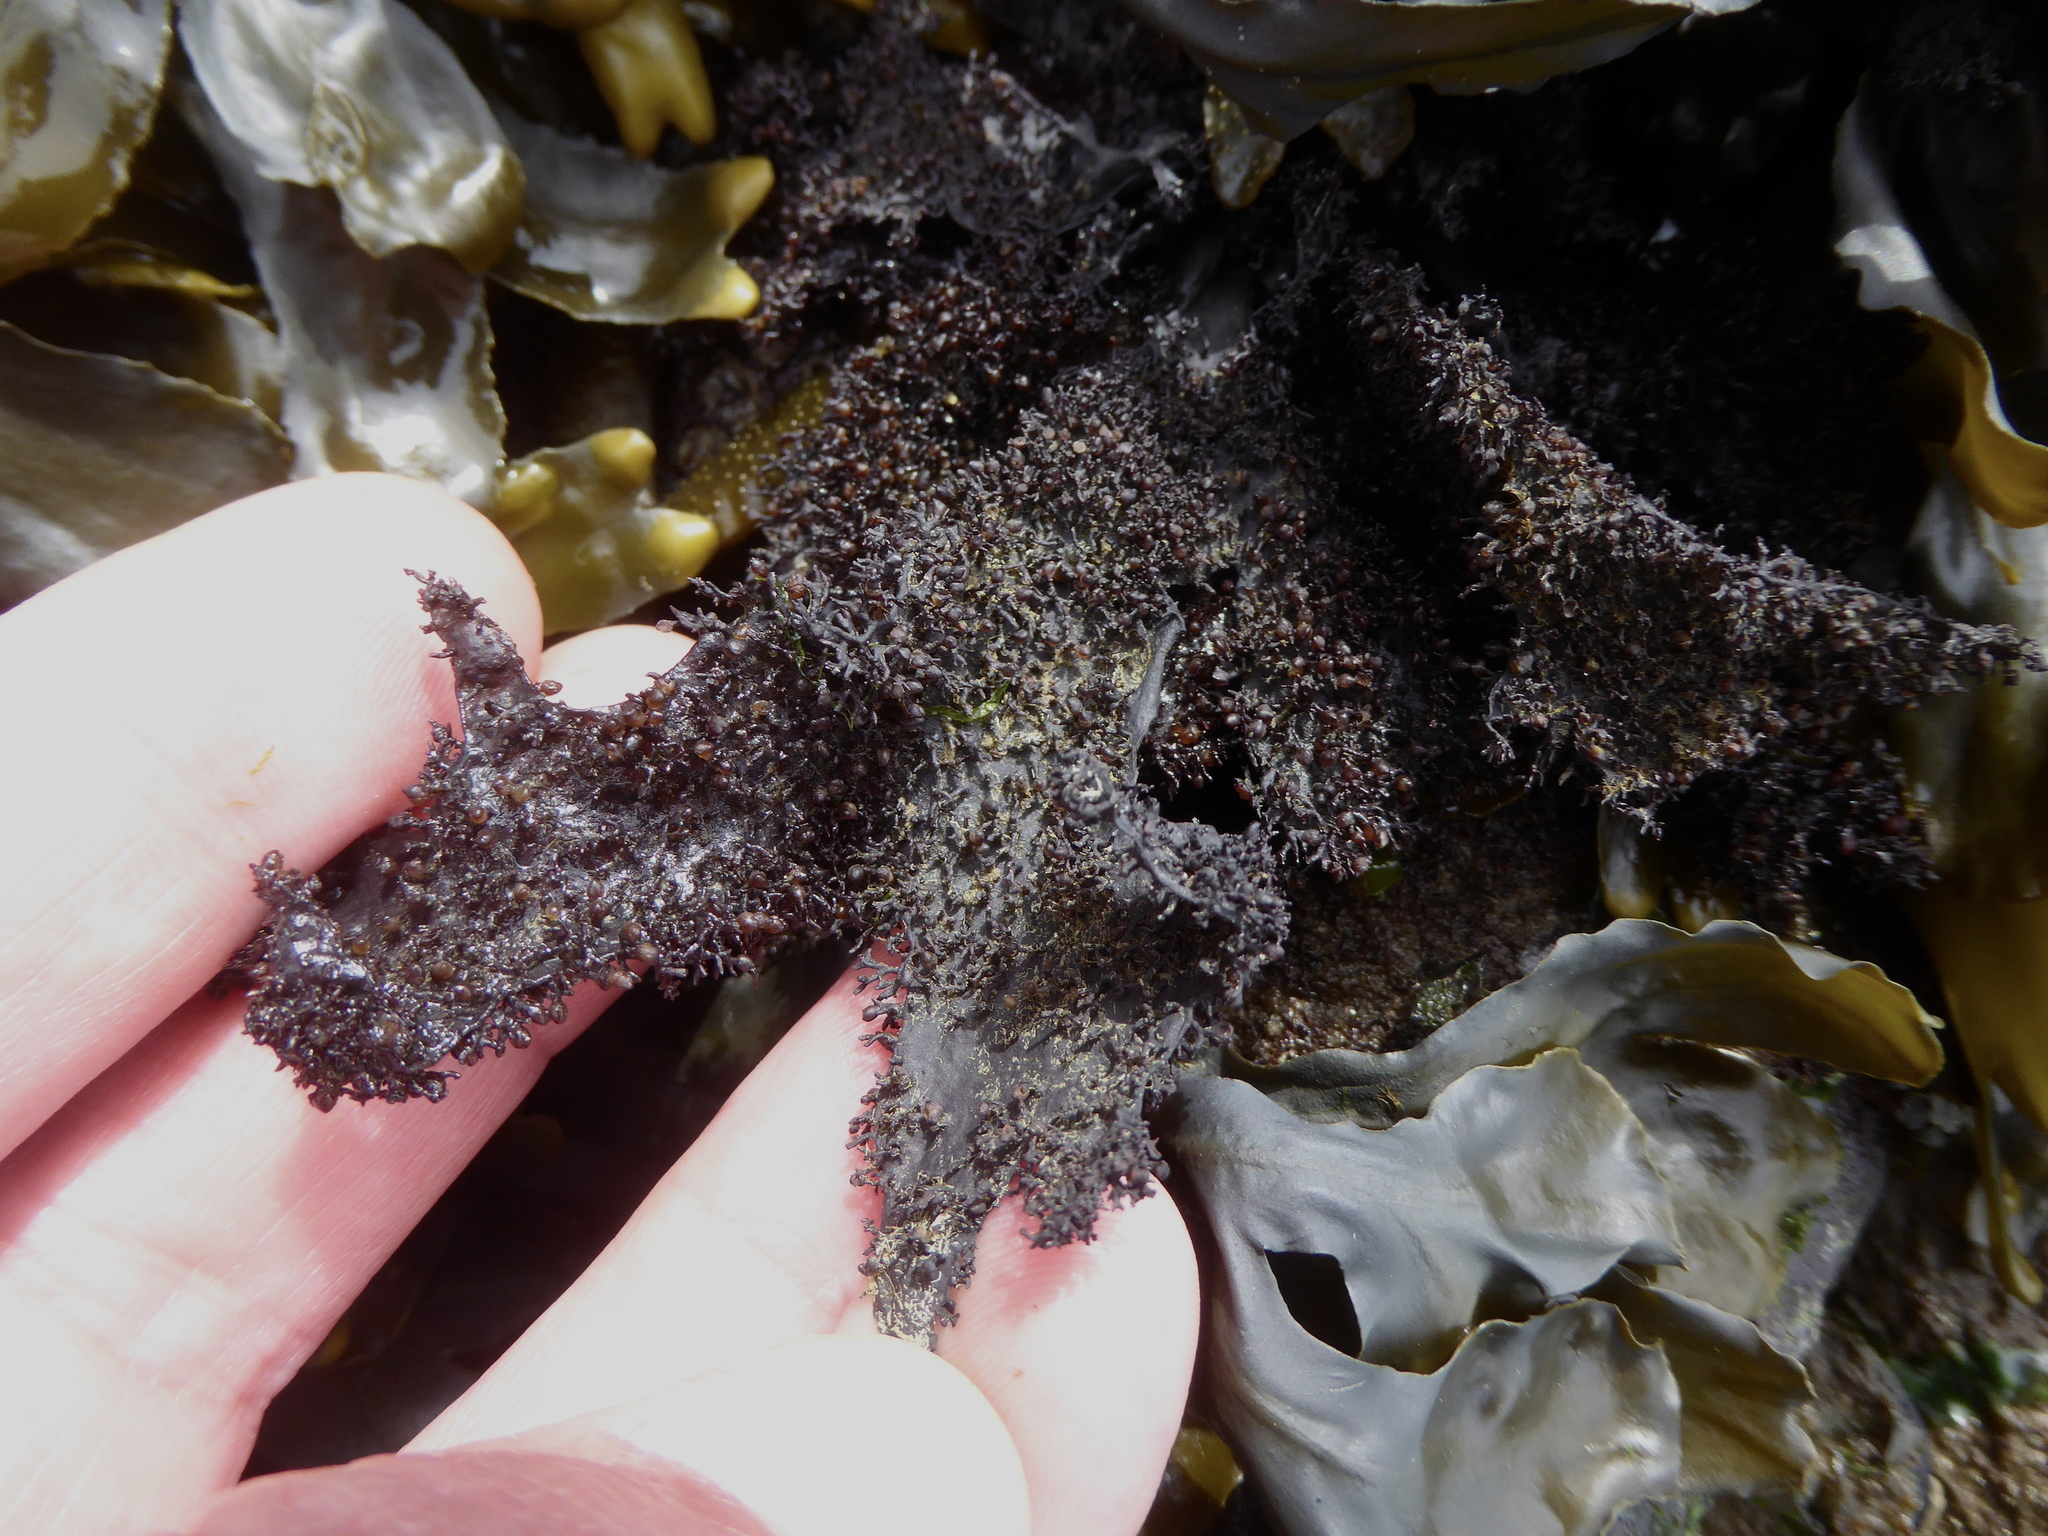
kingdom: Plantae
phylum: Rhodophyta
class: Florideophyceae
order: Gigartinales
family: Phyllophoraceae
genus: Mastocarpus
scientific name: Mastocarpus papillatus
